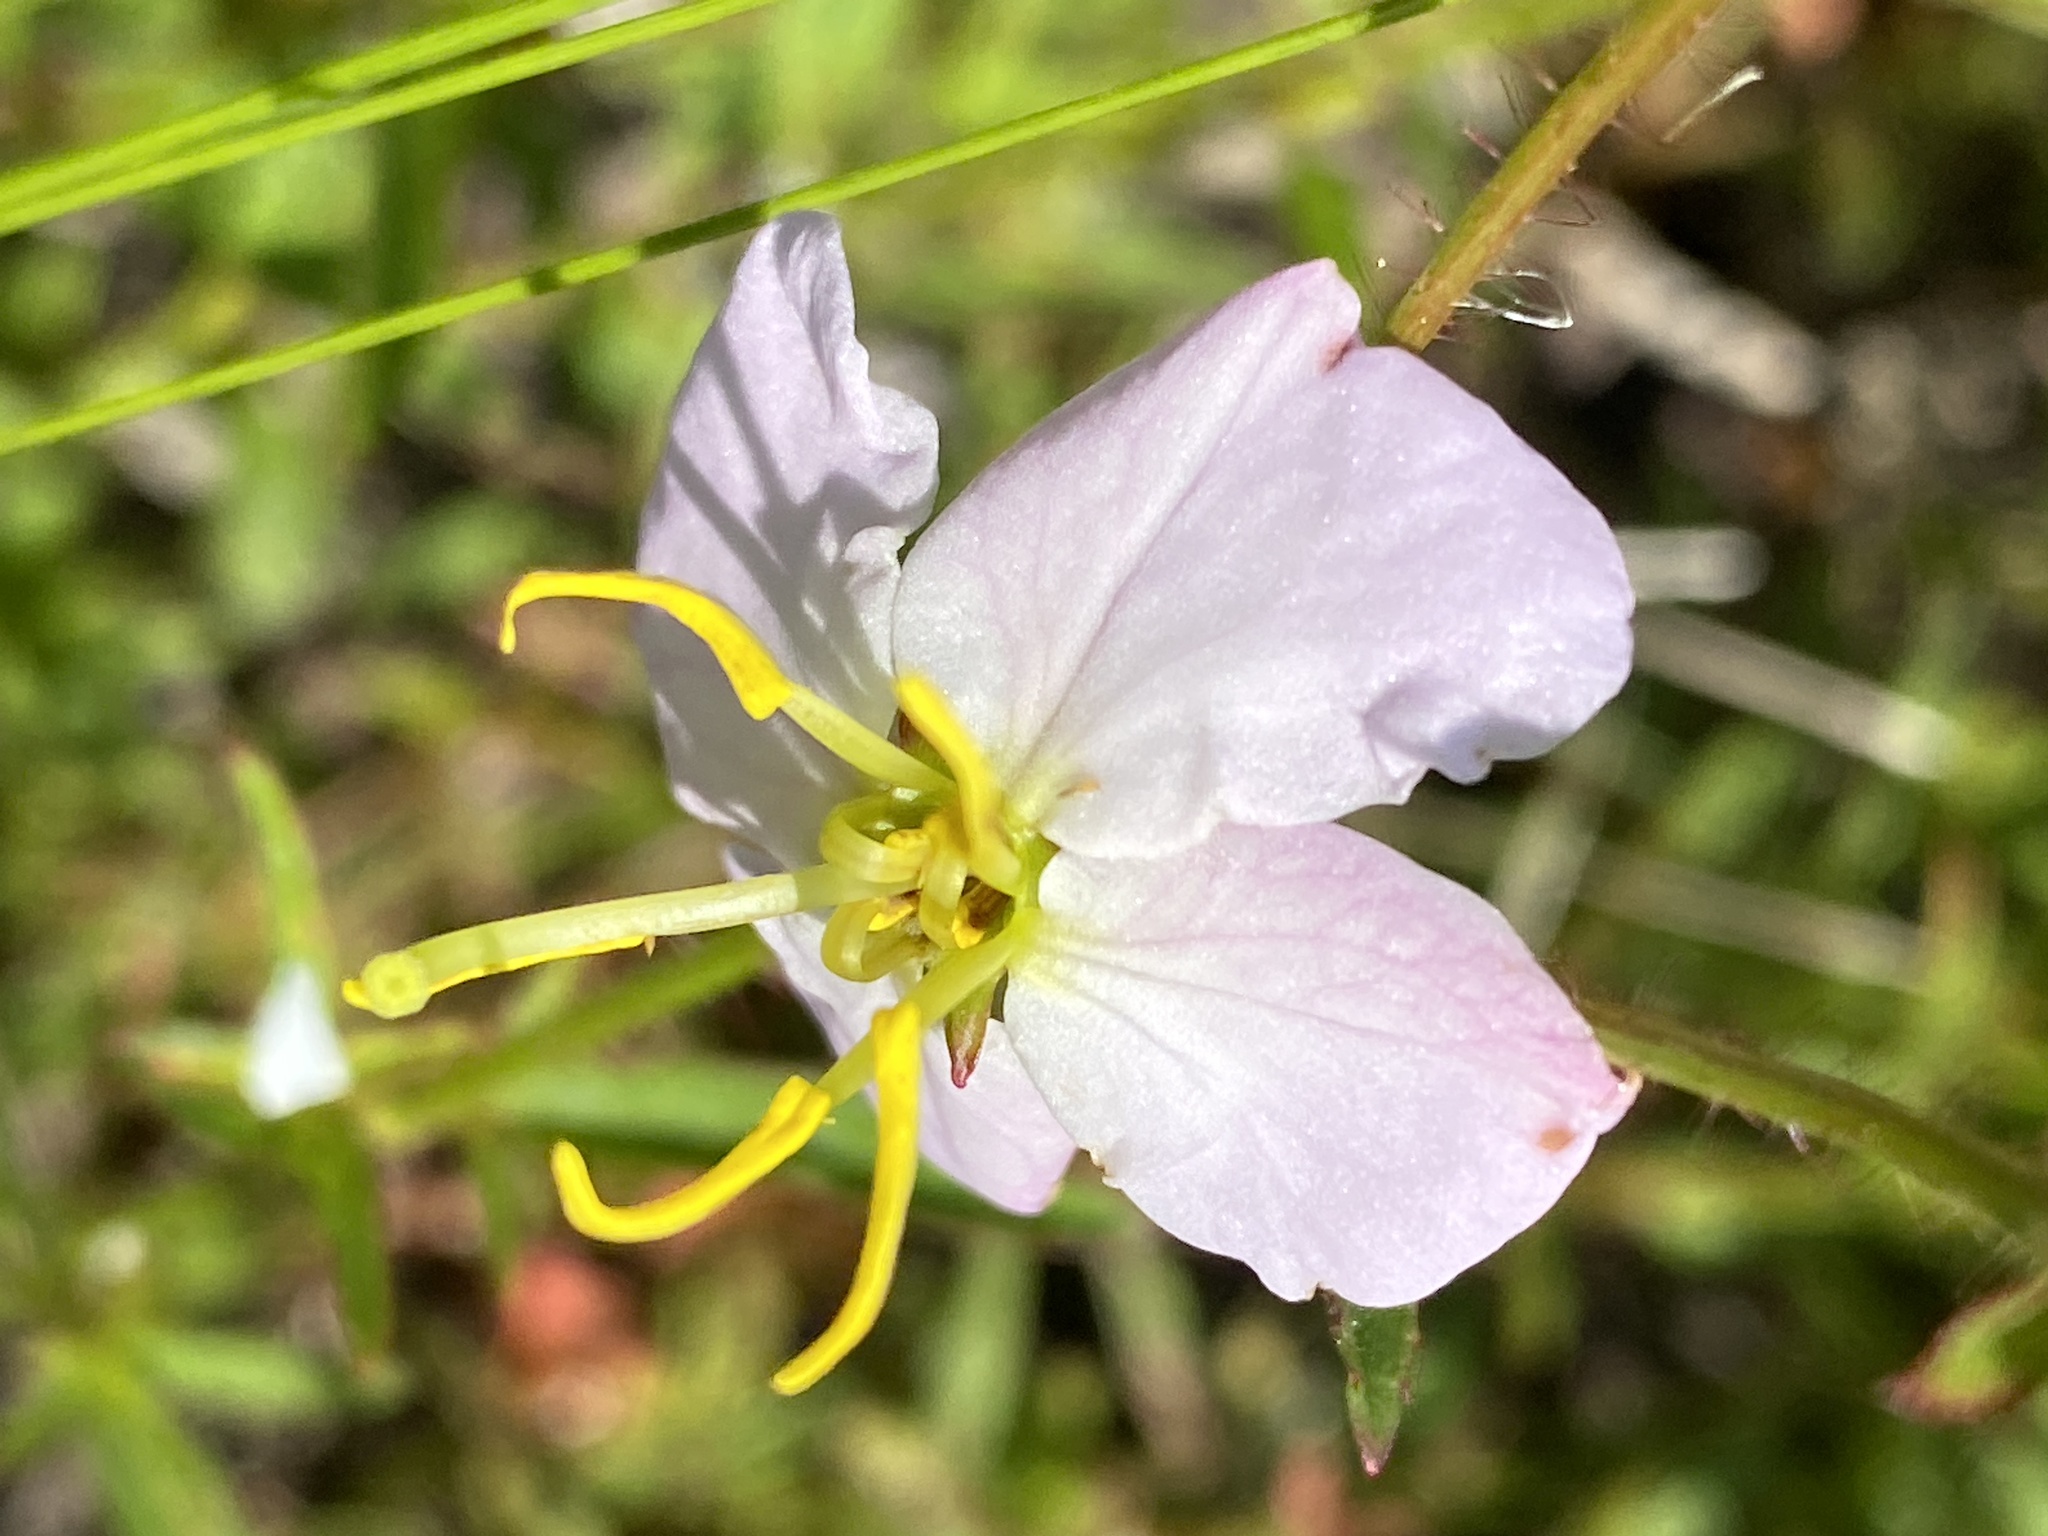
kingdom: Plantae
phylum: Tracheophyta
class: Magnoliopsida
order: Myrtales
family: Melastomataceae
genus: Rhexia
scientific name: Rhexia mariana
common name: Dull meadow-pitcher
